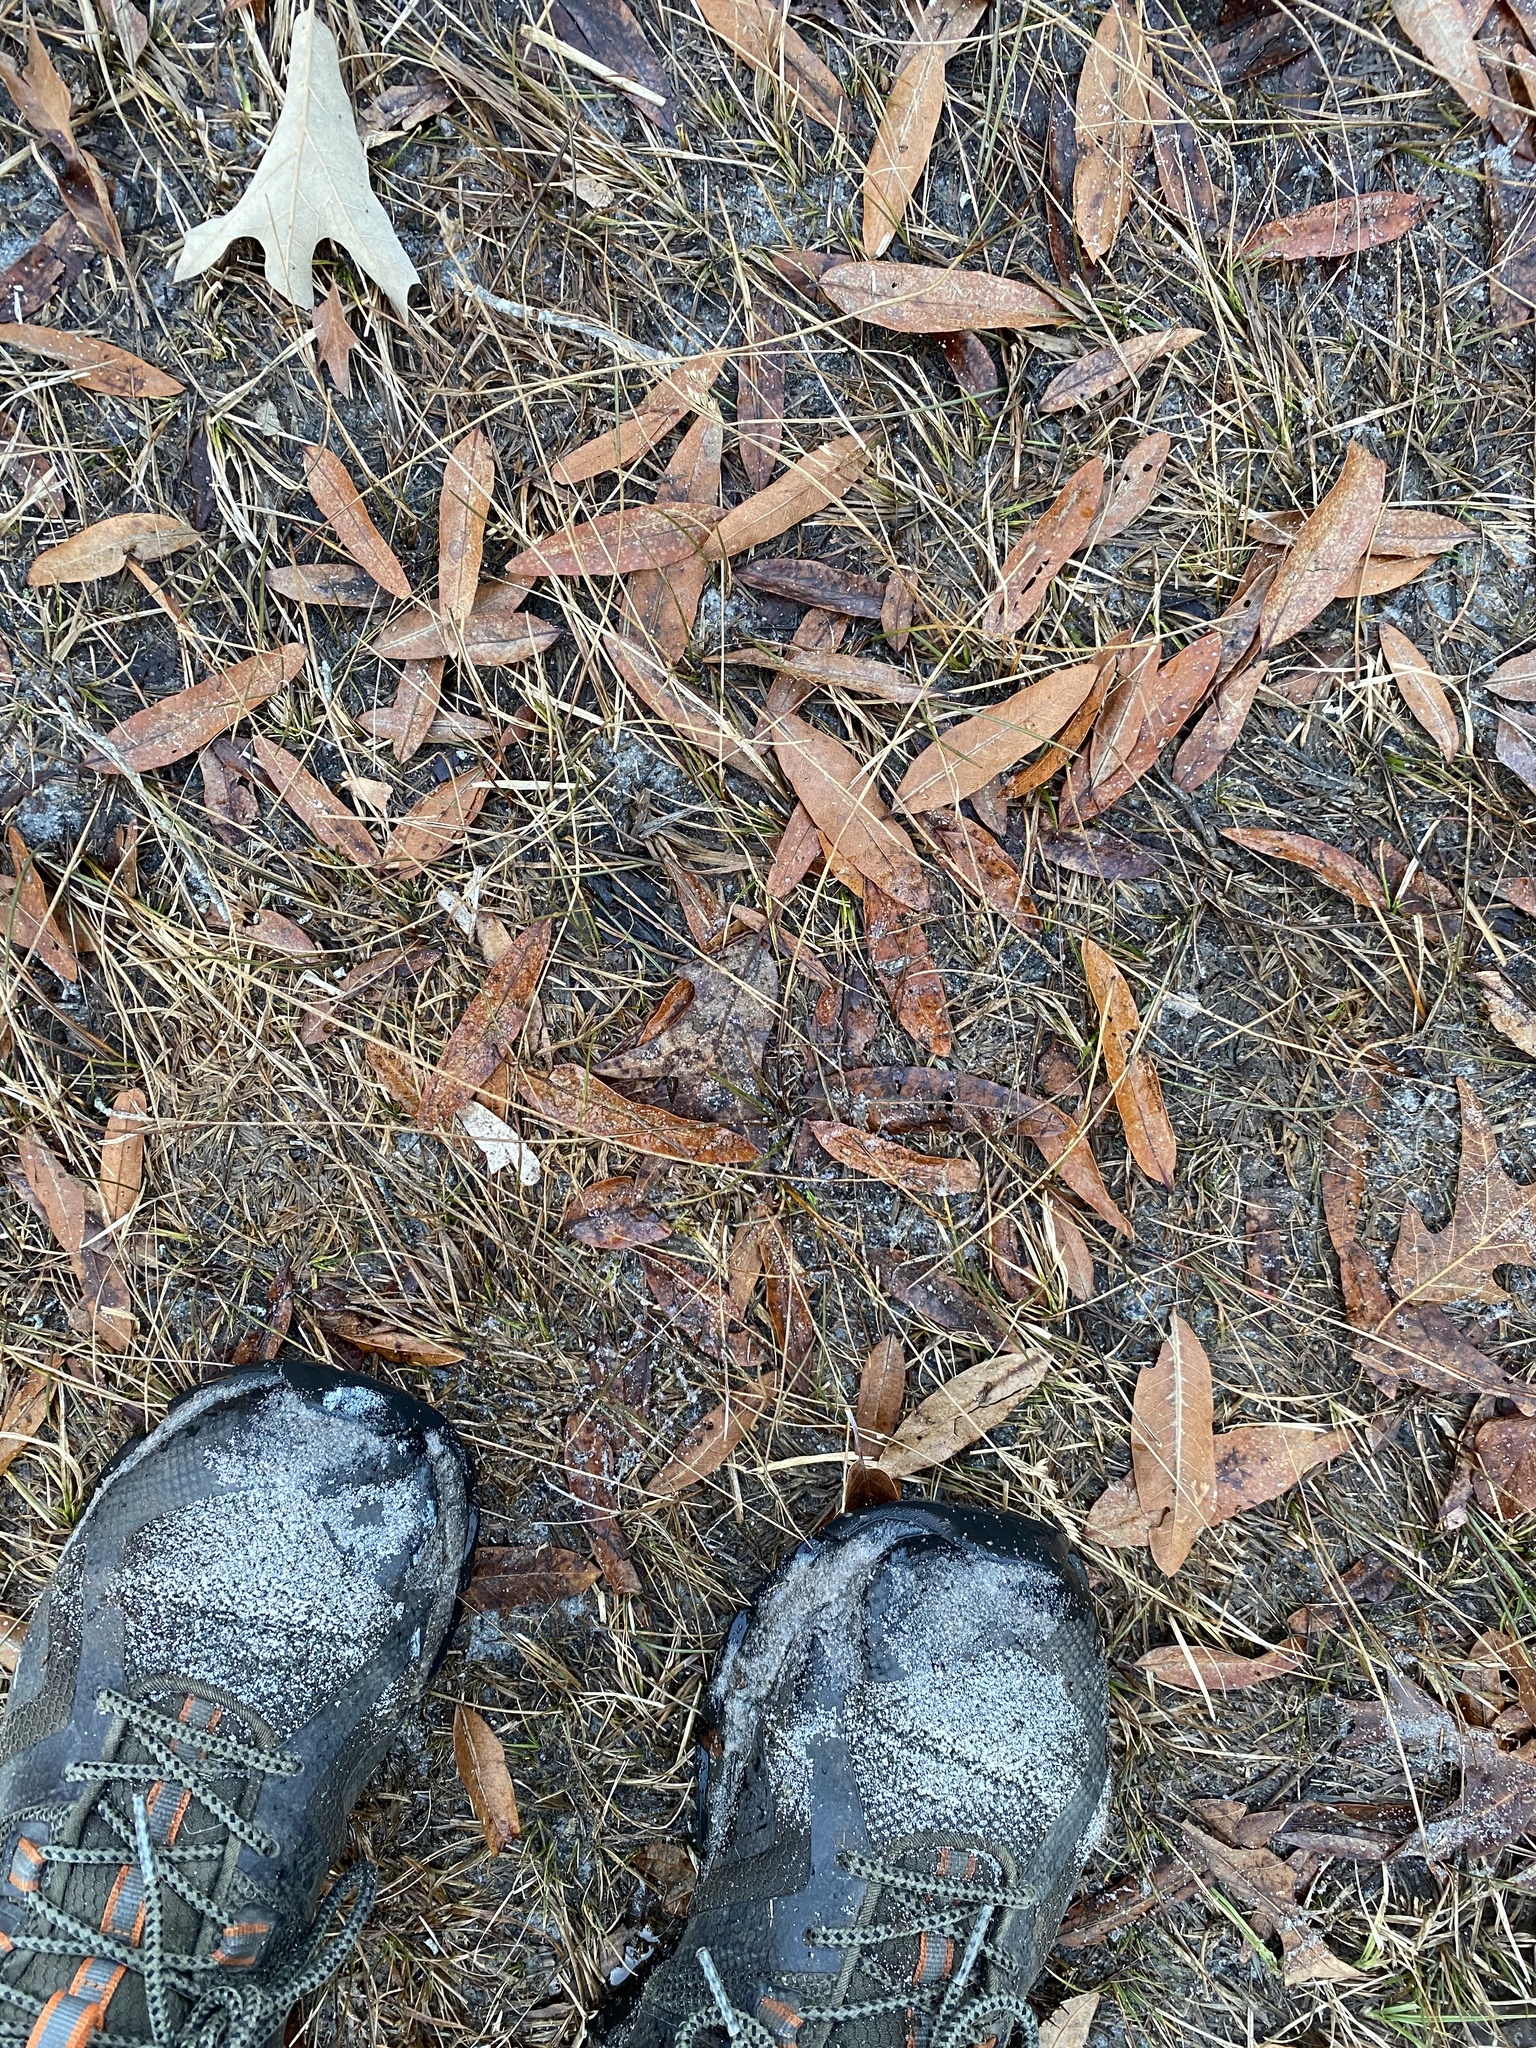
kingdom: Plantae
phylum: Tracheophyta
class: Magnoliopsida
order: Fagales
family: Fagaceae
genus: Quercus
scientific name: Quercus phellos
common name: Willow oak
